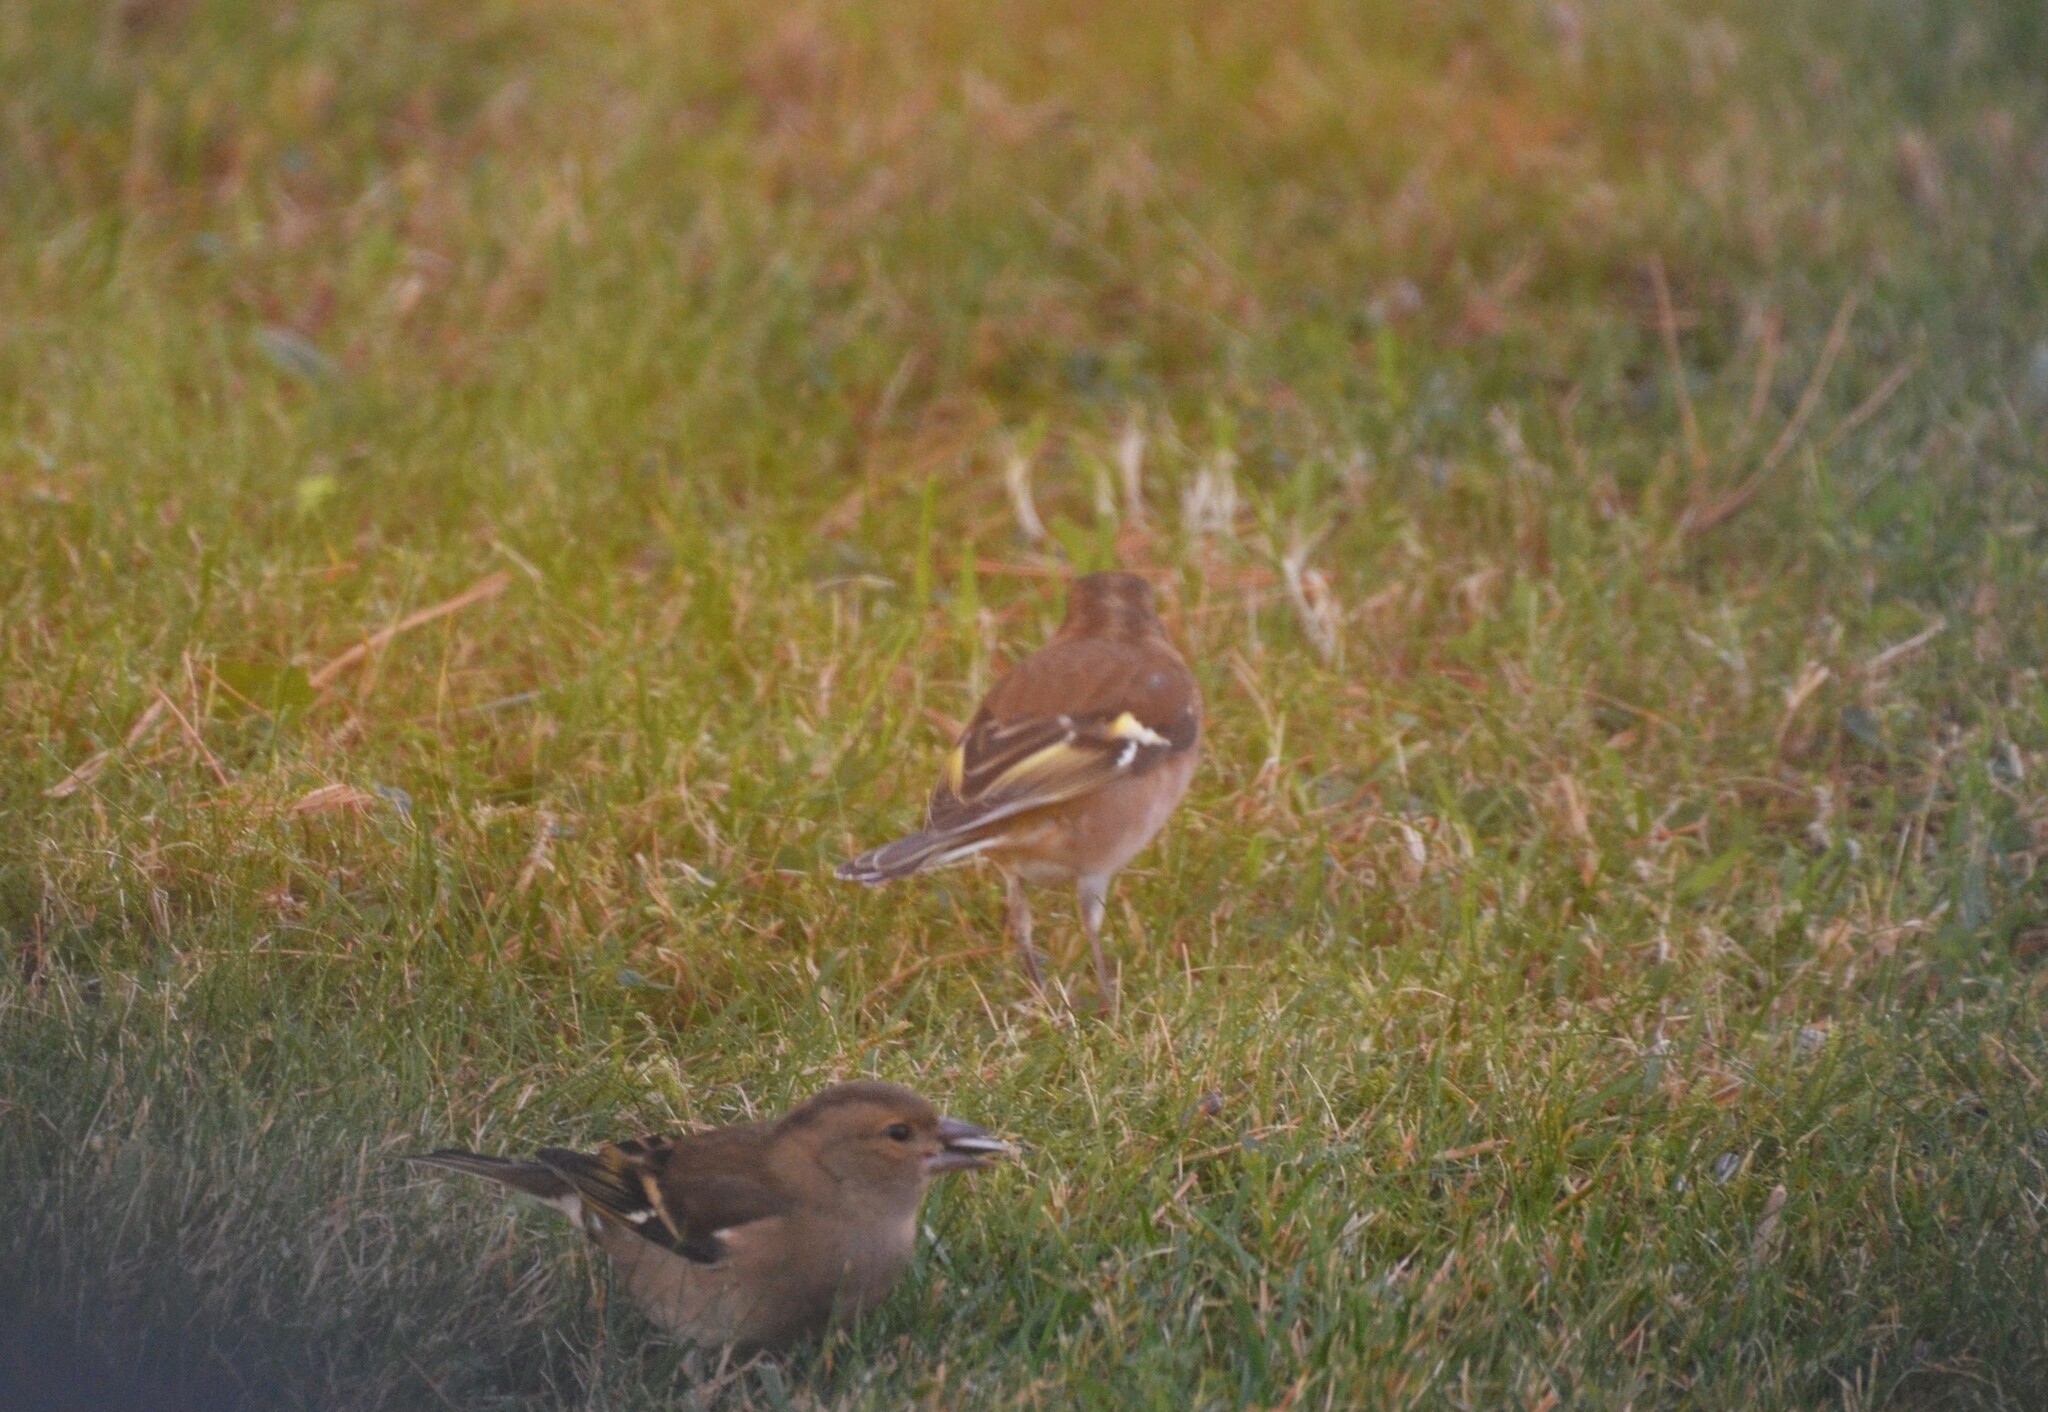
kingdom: Animalia
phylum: Chordata
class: Aves
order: Passeriformes
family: Fringillidae
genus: Fringilla
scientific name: Fringilla coelebs
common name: Common chaffinch
